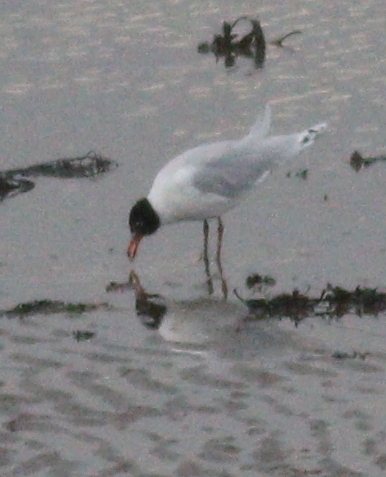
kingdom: Animalia
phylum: Chordata
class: Aves
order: Charadriiformes
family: Laridae
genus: Ichthyaetus
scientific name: Ichthyaetus melanocephalus
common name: Mediterranean gull
